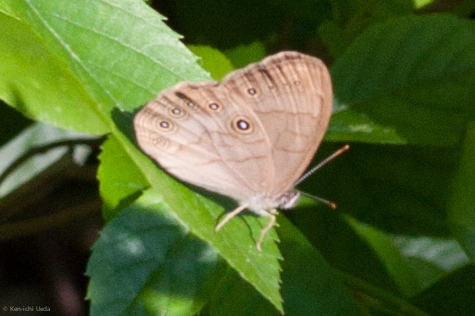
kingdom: Animalia
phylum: Arthropoda
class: Insecta
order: Lepidoptera
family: Nymphalidae
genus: Lethe
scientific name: Lethe eurydice
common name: Eyed brown
